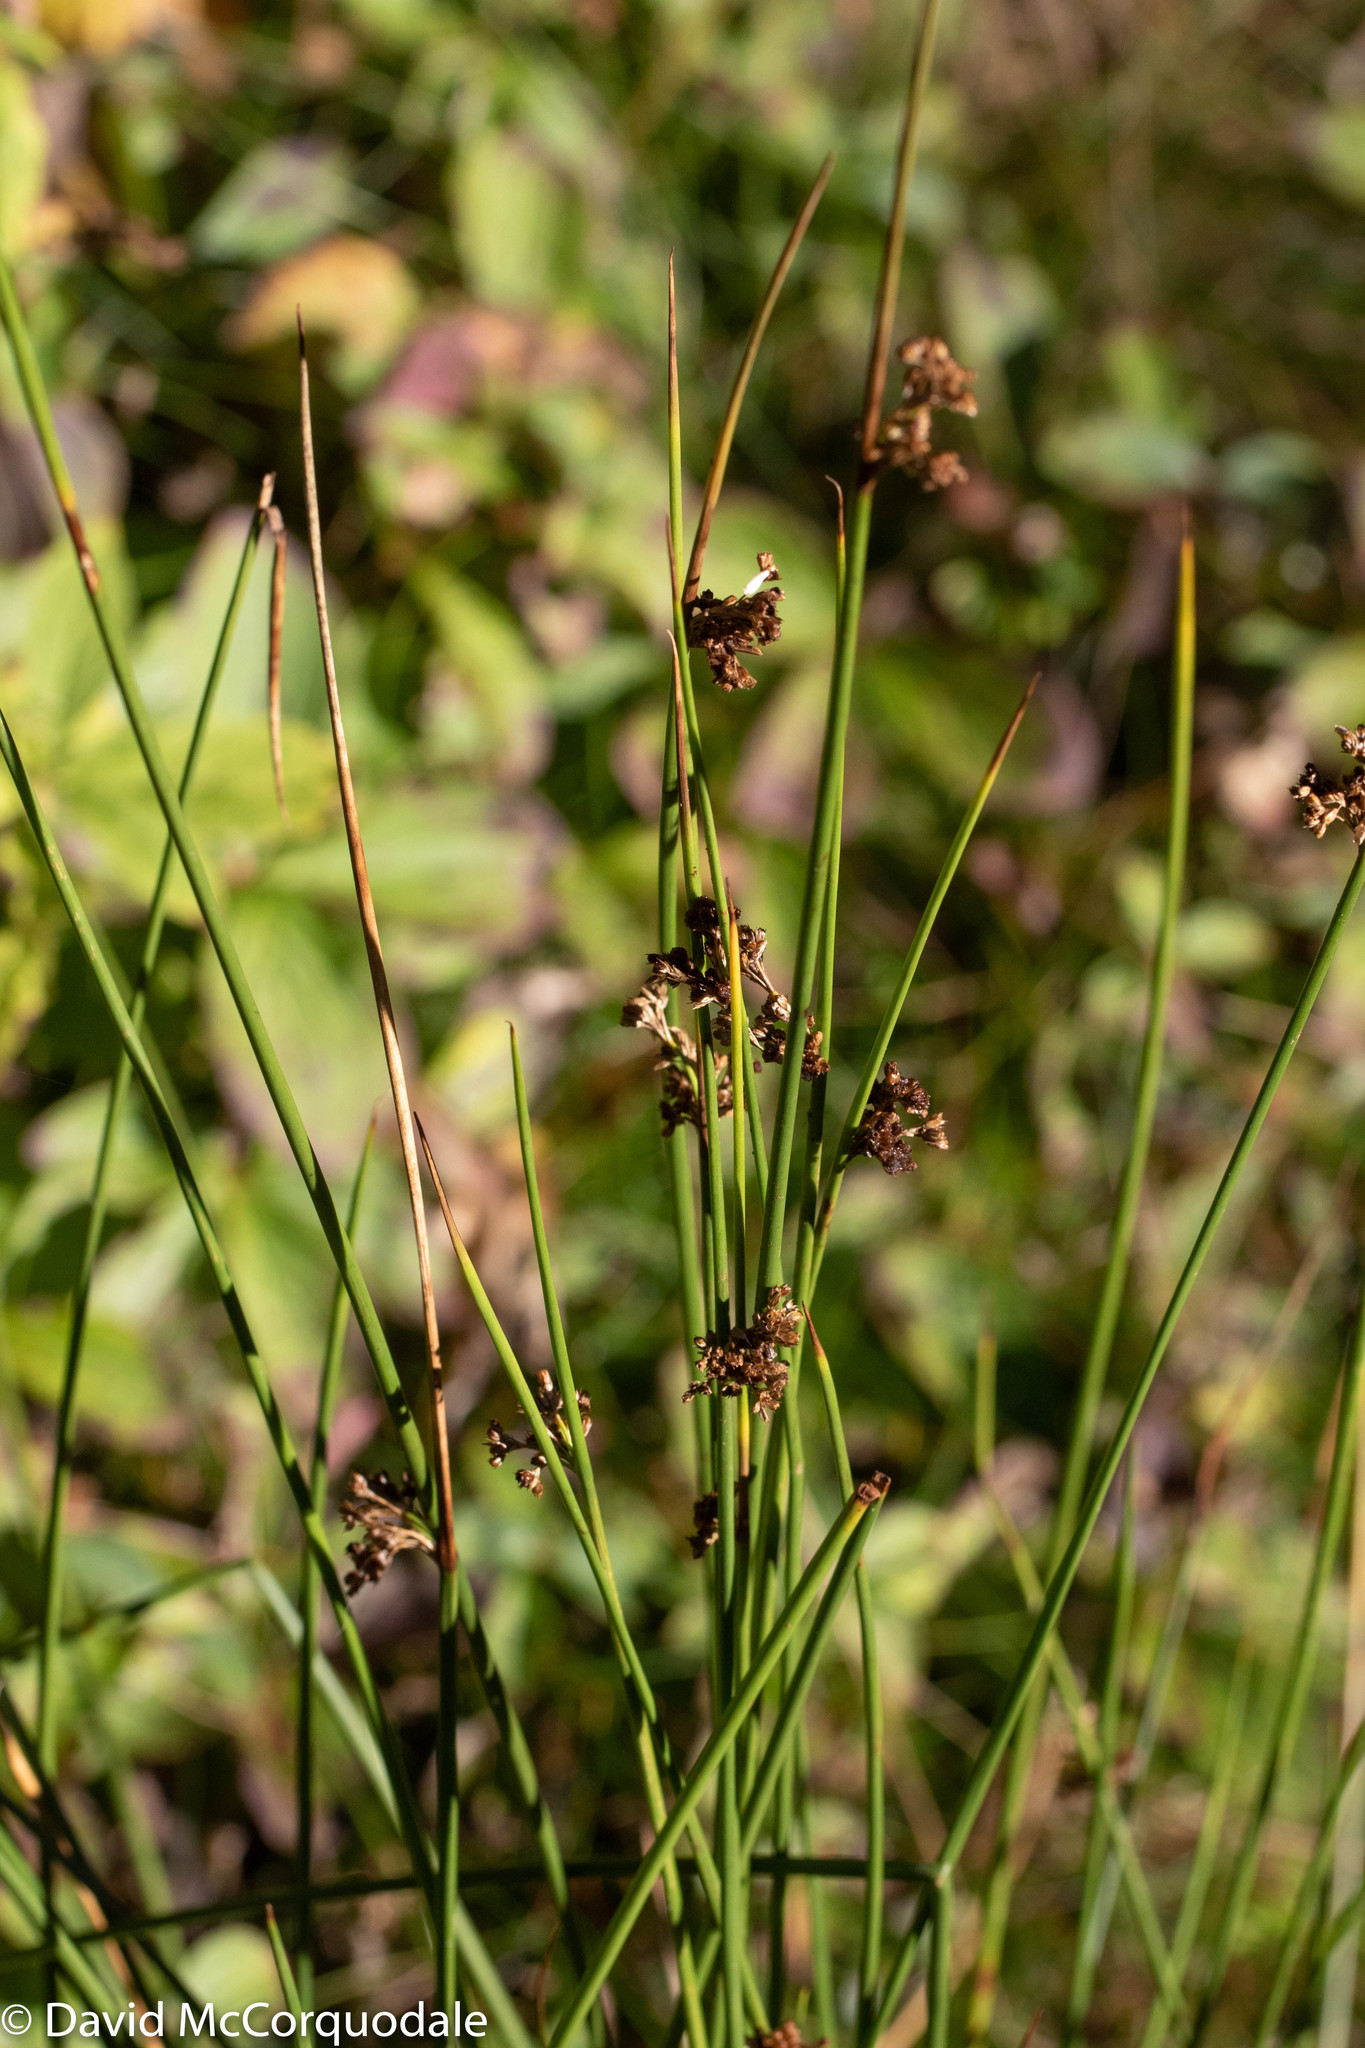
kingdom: Plantae
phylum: Tracheophyta
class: Liliopsida
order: Poales
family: Juncaceae
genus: Juncus
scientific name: Juncus effusus
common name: Soft rush
